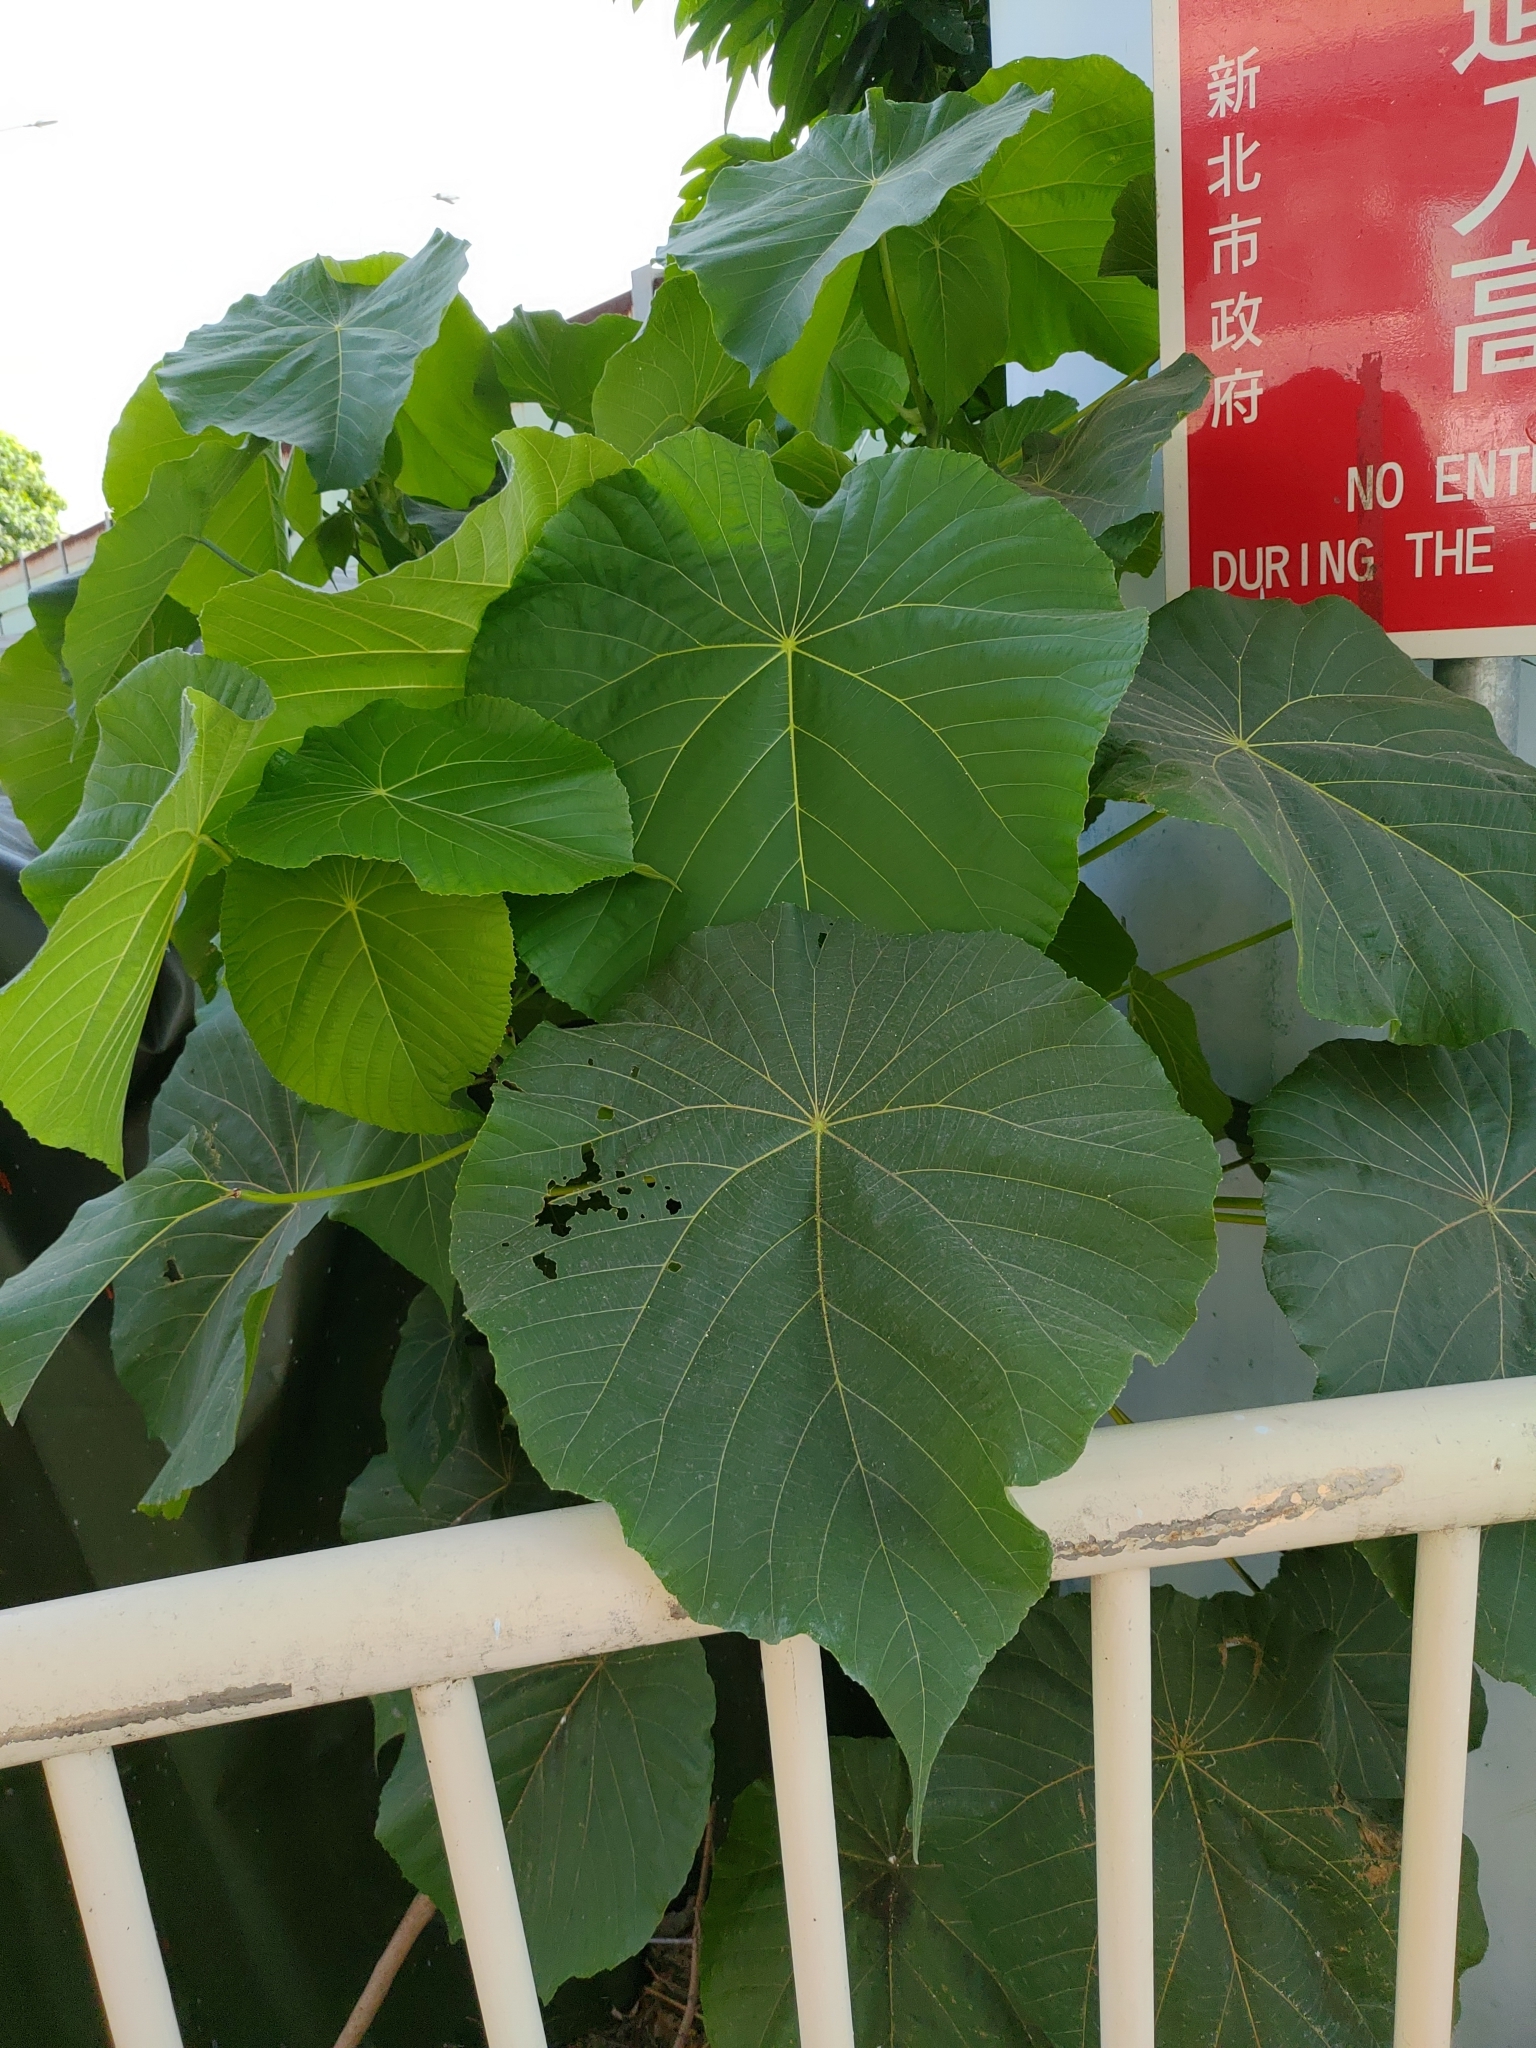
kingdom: Plantae
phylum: Tracheophyta
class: Magnoliopsida
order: Malpighiales
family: Euphorbiaceae
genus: Macaranga
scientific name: Macaranga tanarius
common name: Parasol leaf tree
